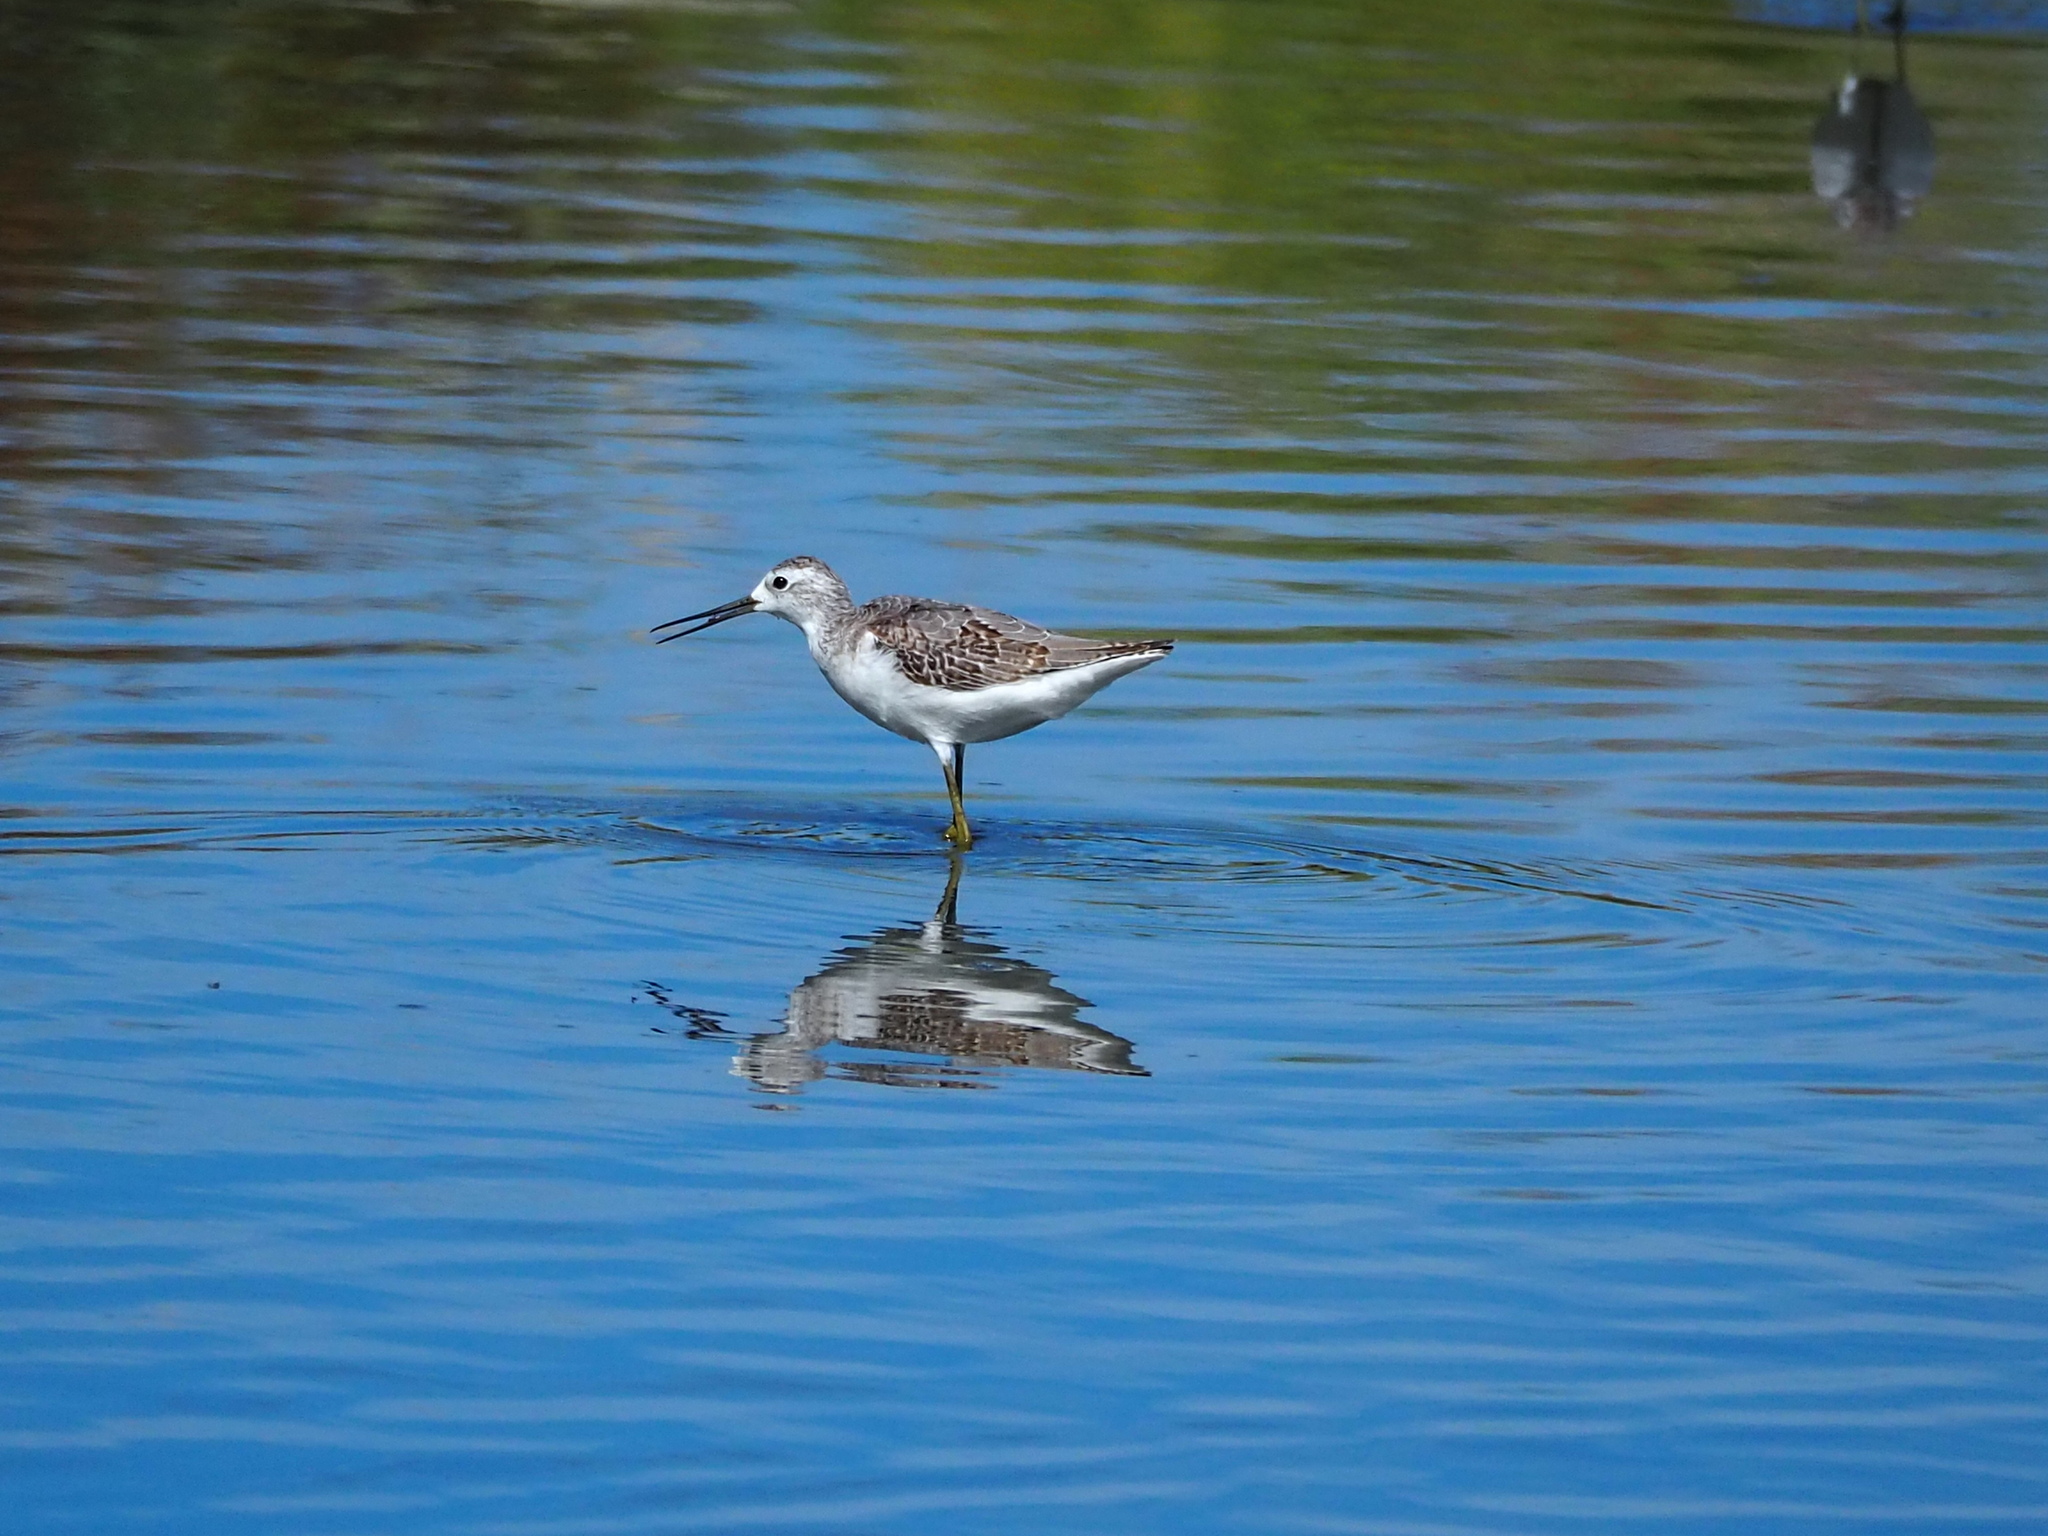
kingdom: Animalia
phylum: Chordata
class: Aves
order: Charadriiformes
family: Scolopacidae
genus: Tringa
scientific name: Tringa stagnatilis
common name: Marsh sandpiper
